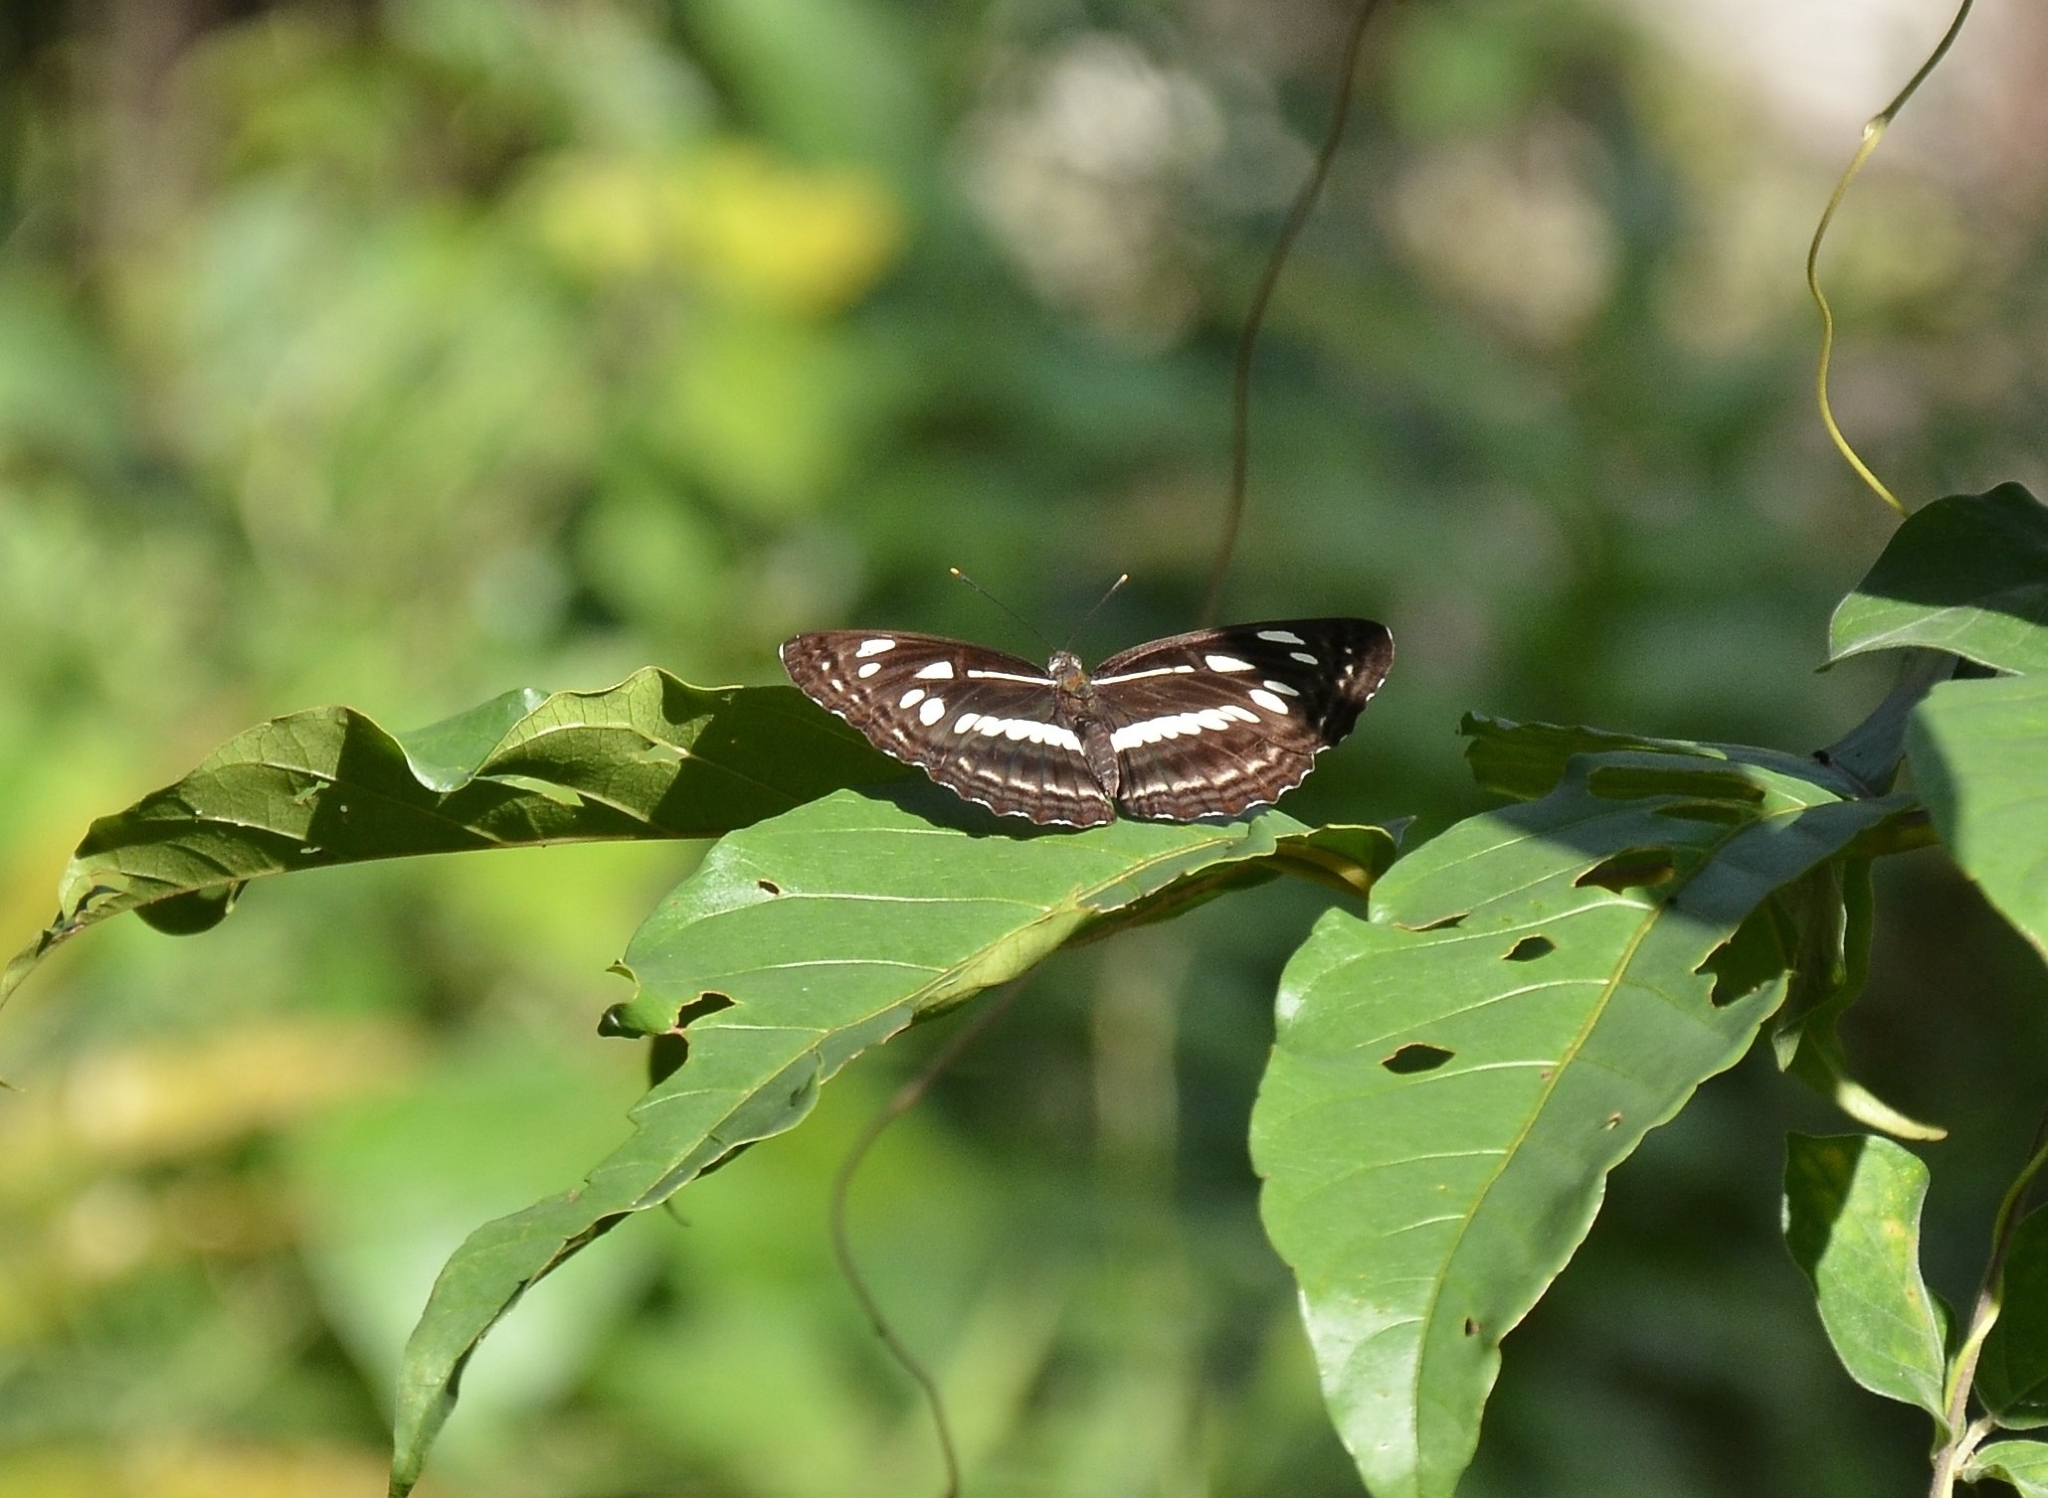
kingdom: Animalia
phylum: Arthropoda
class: Insecta
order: Lepidoptera
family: Nymphalidae
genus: Neptis
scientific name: Neptis jumbah
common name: Chestnut-streaked sailer
